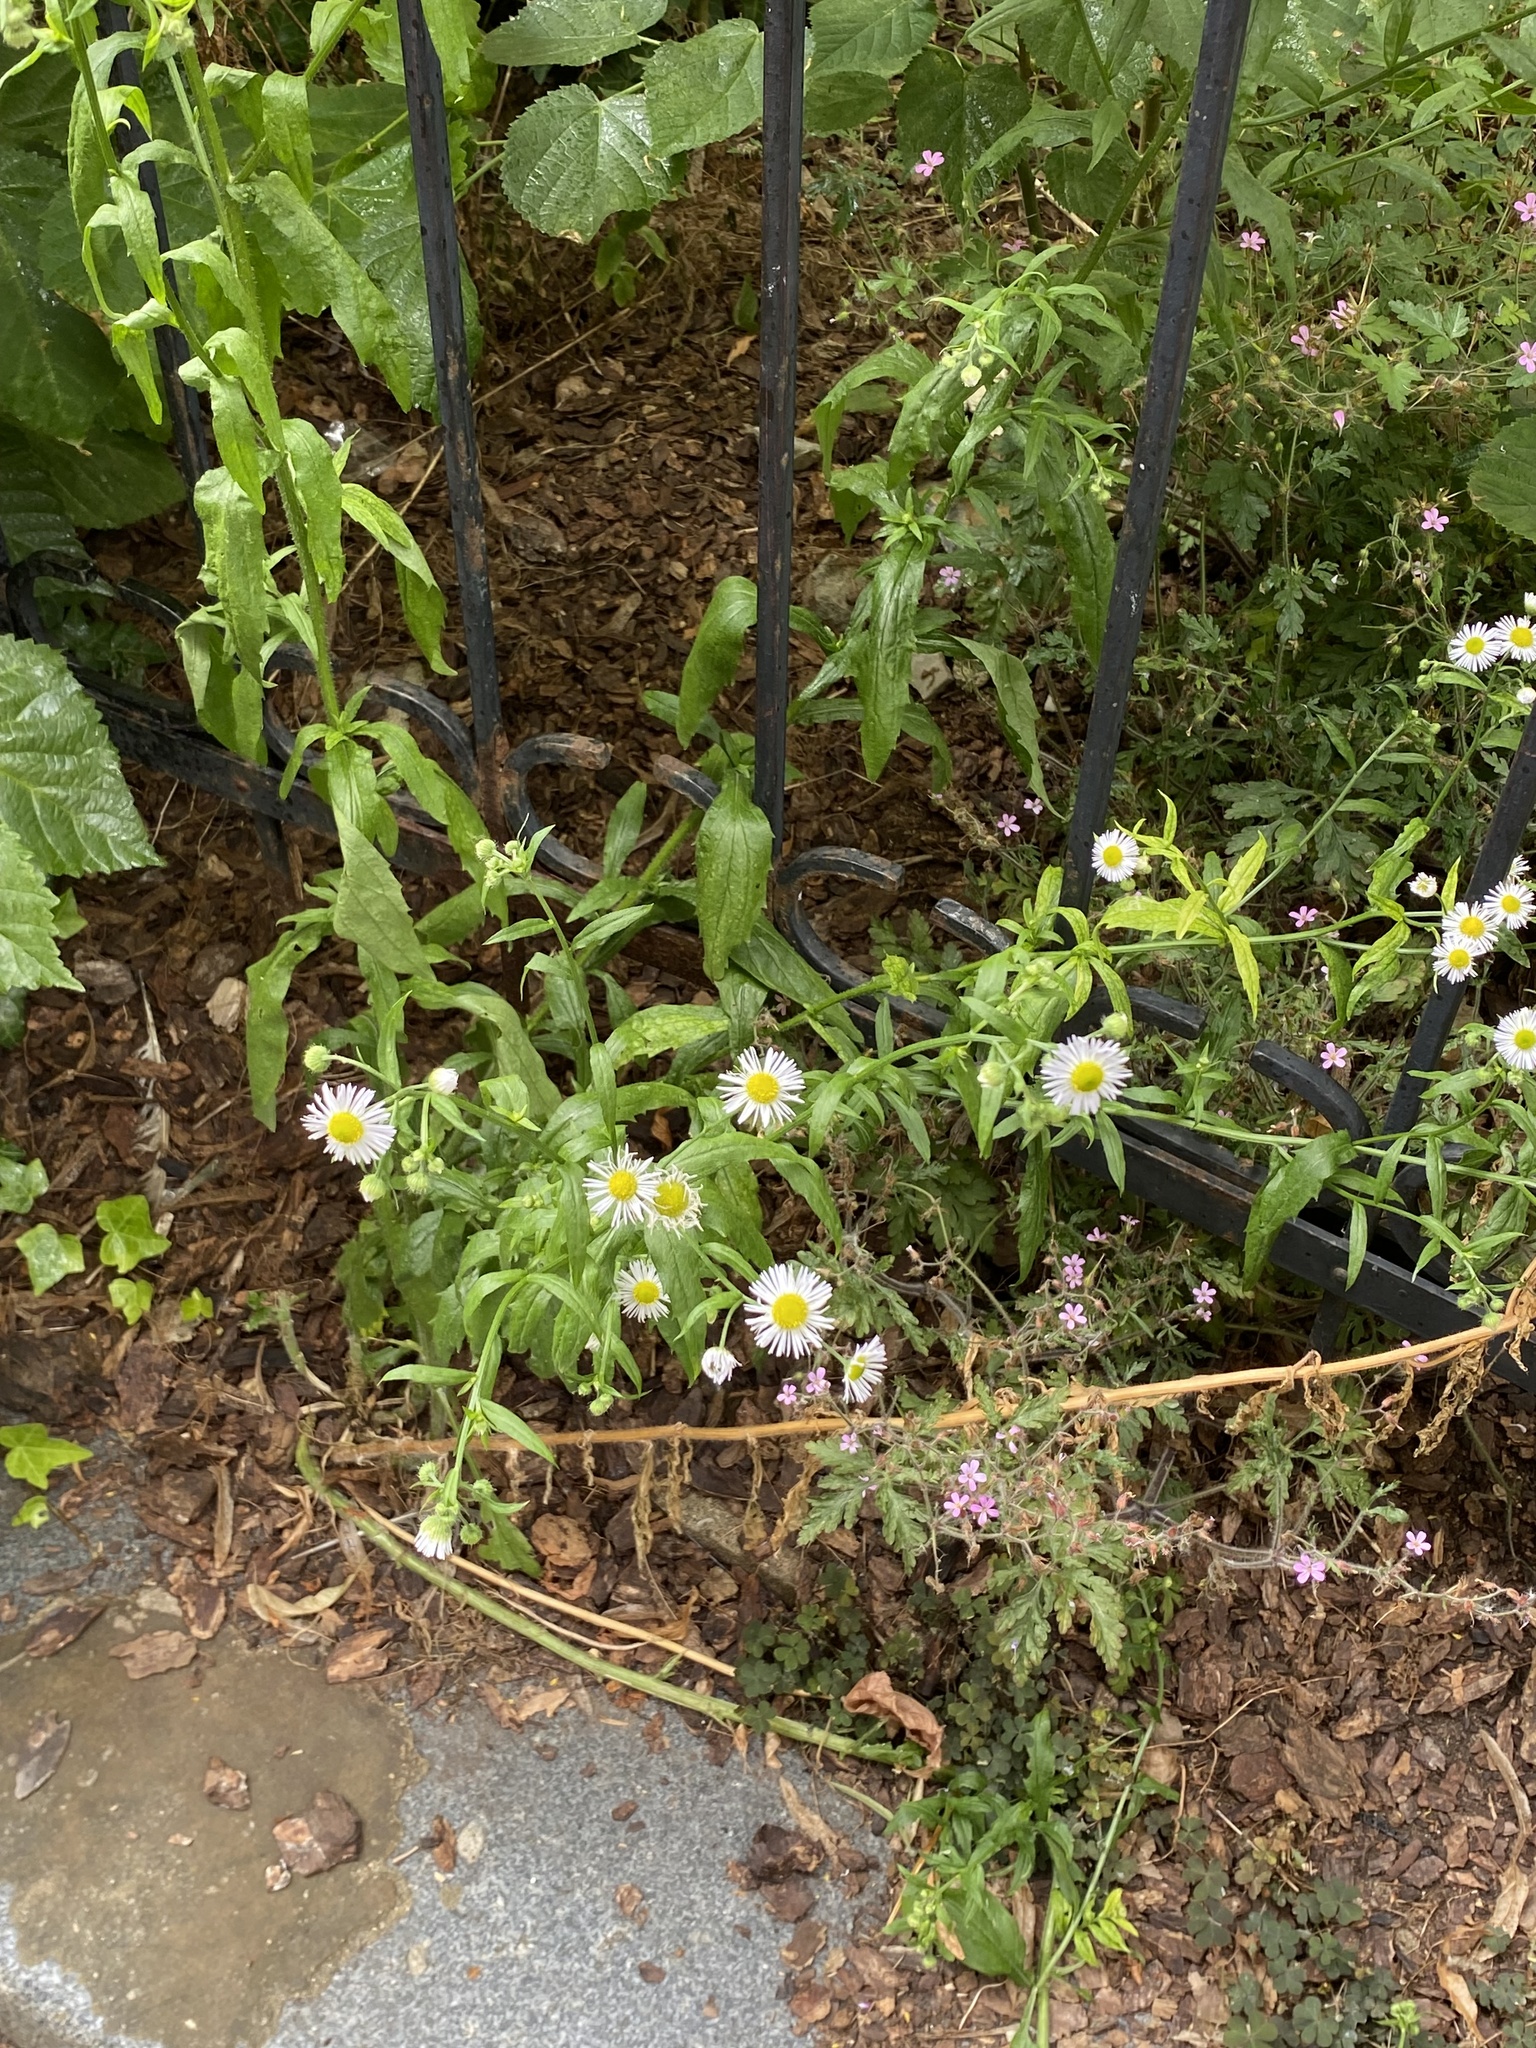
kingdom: Plantae
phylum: Tracheophyta
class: Magnoliopsida
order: Asterales
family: Asteraceae
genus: Erigeron
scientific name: Erigeron annuus
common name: Tall fleabane
